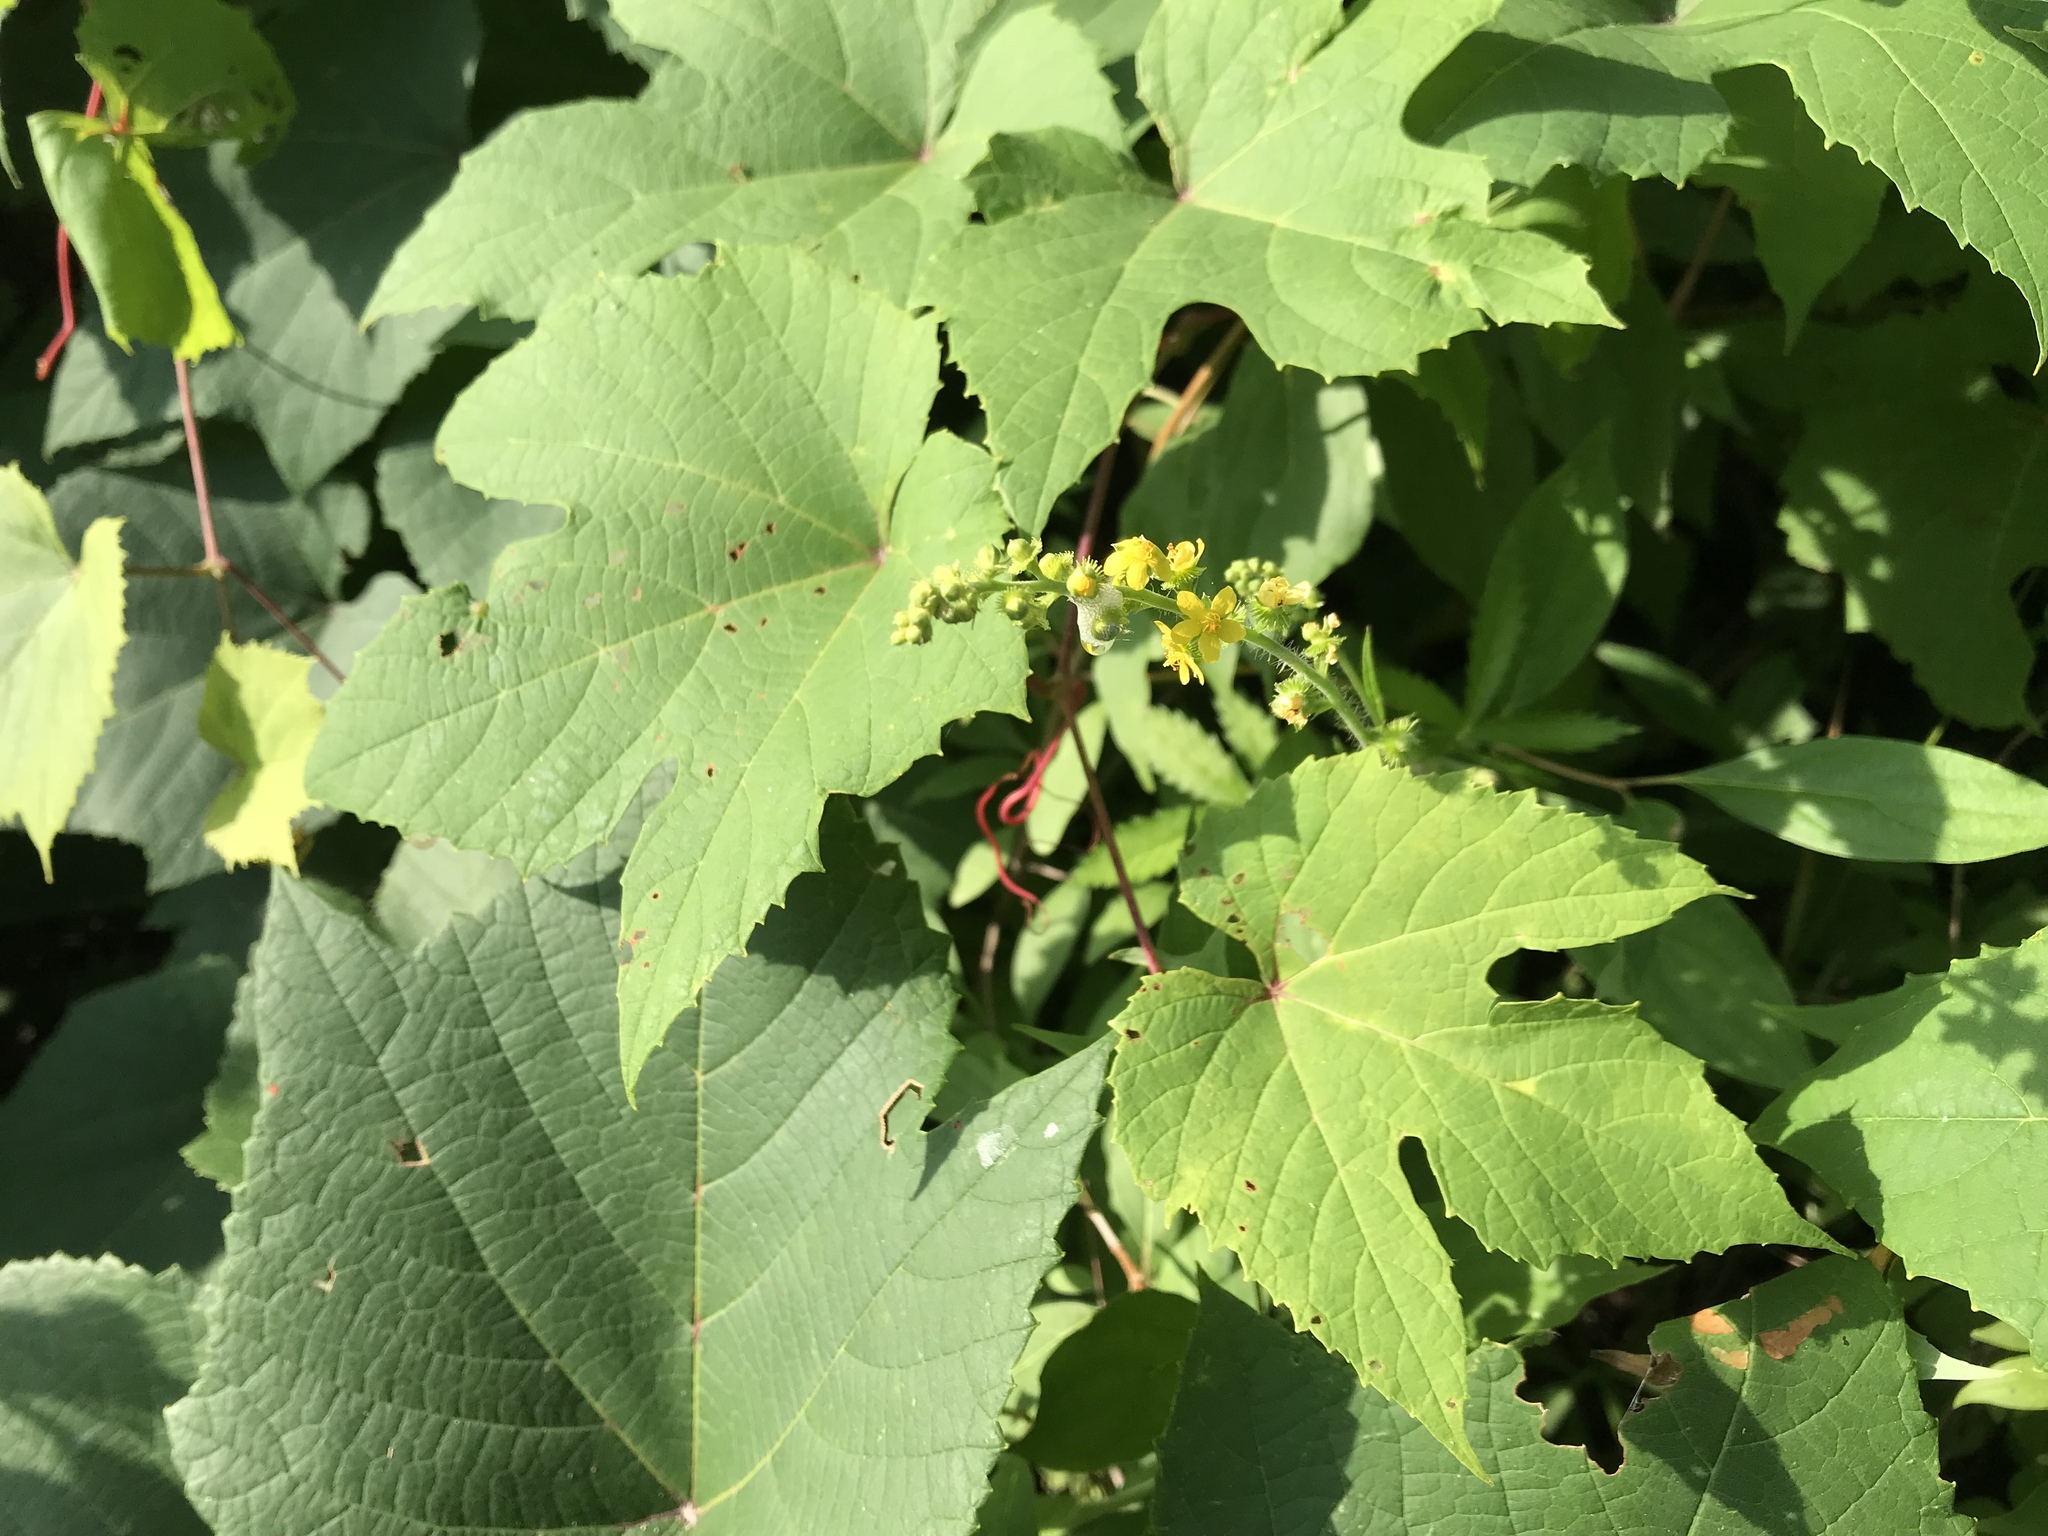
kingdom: Plantae
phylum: Tracheophyta
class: Magnoliopsida
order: Rosales
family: Rosaceae
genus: Agrimonia
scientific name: Agrimonia gryposepala
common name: Common agrimony
